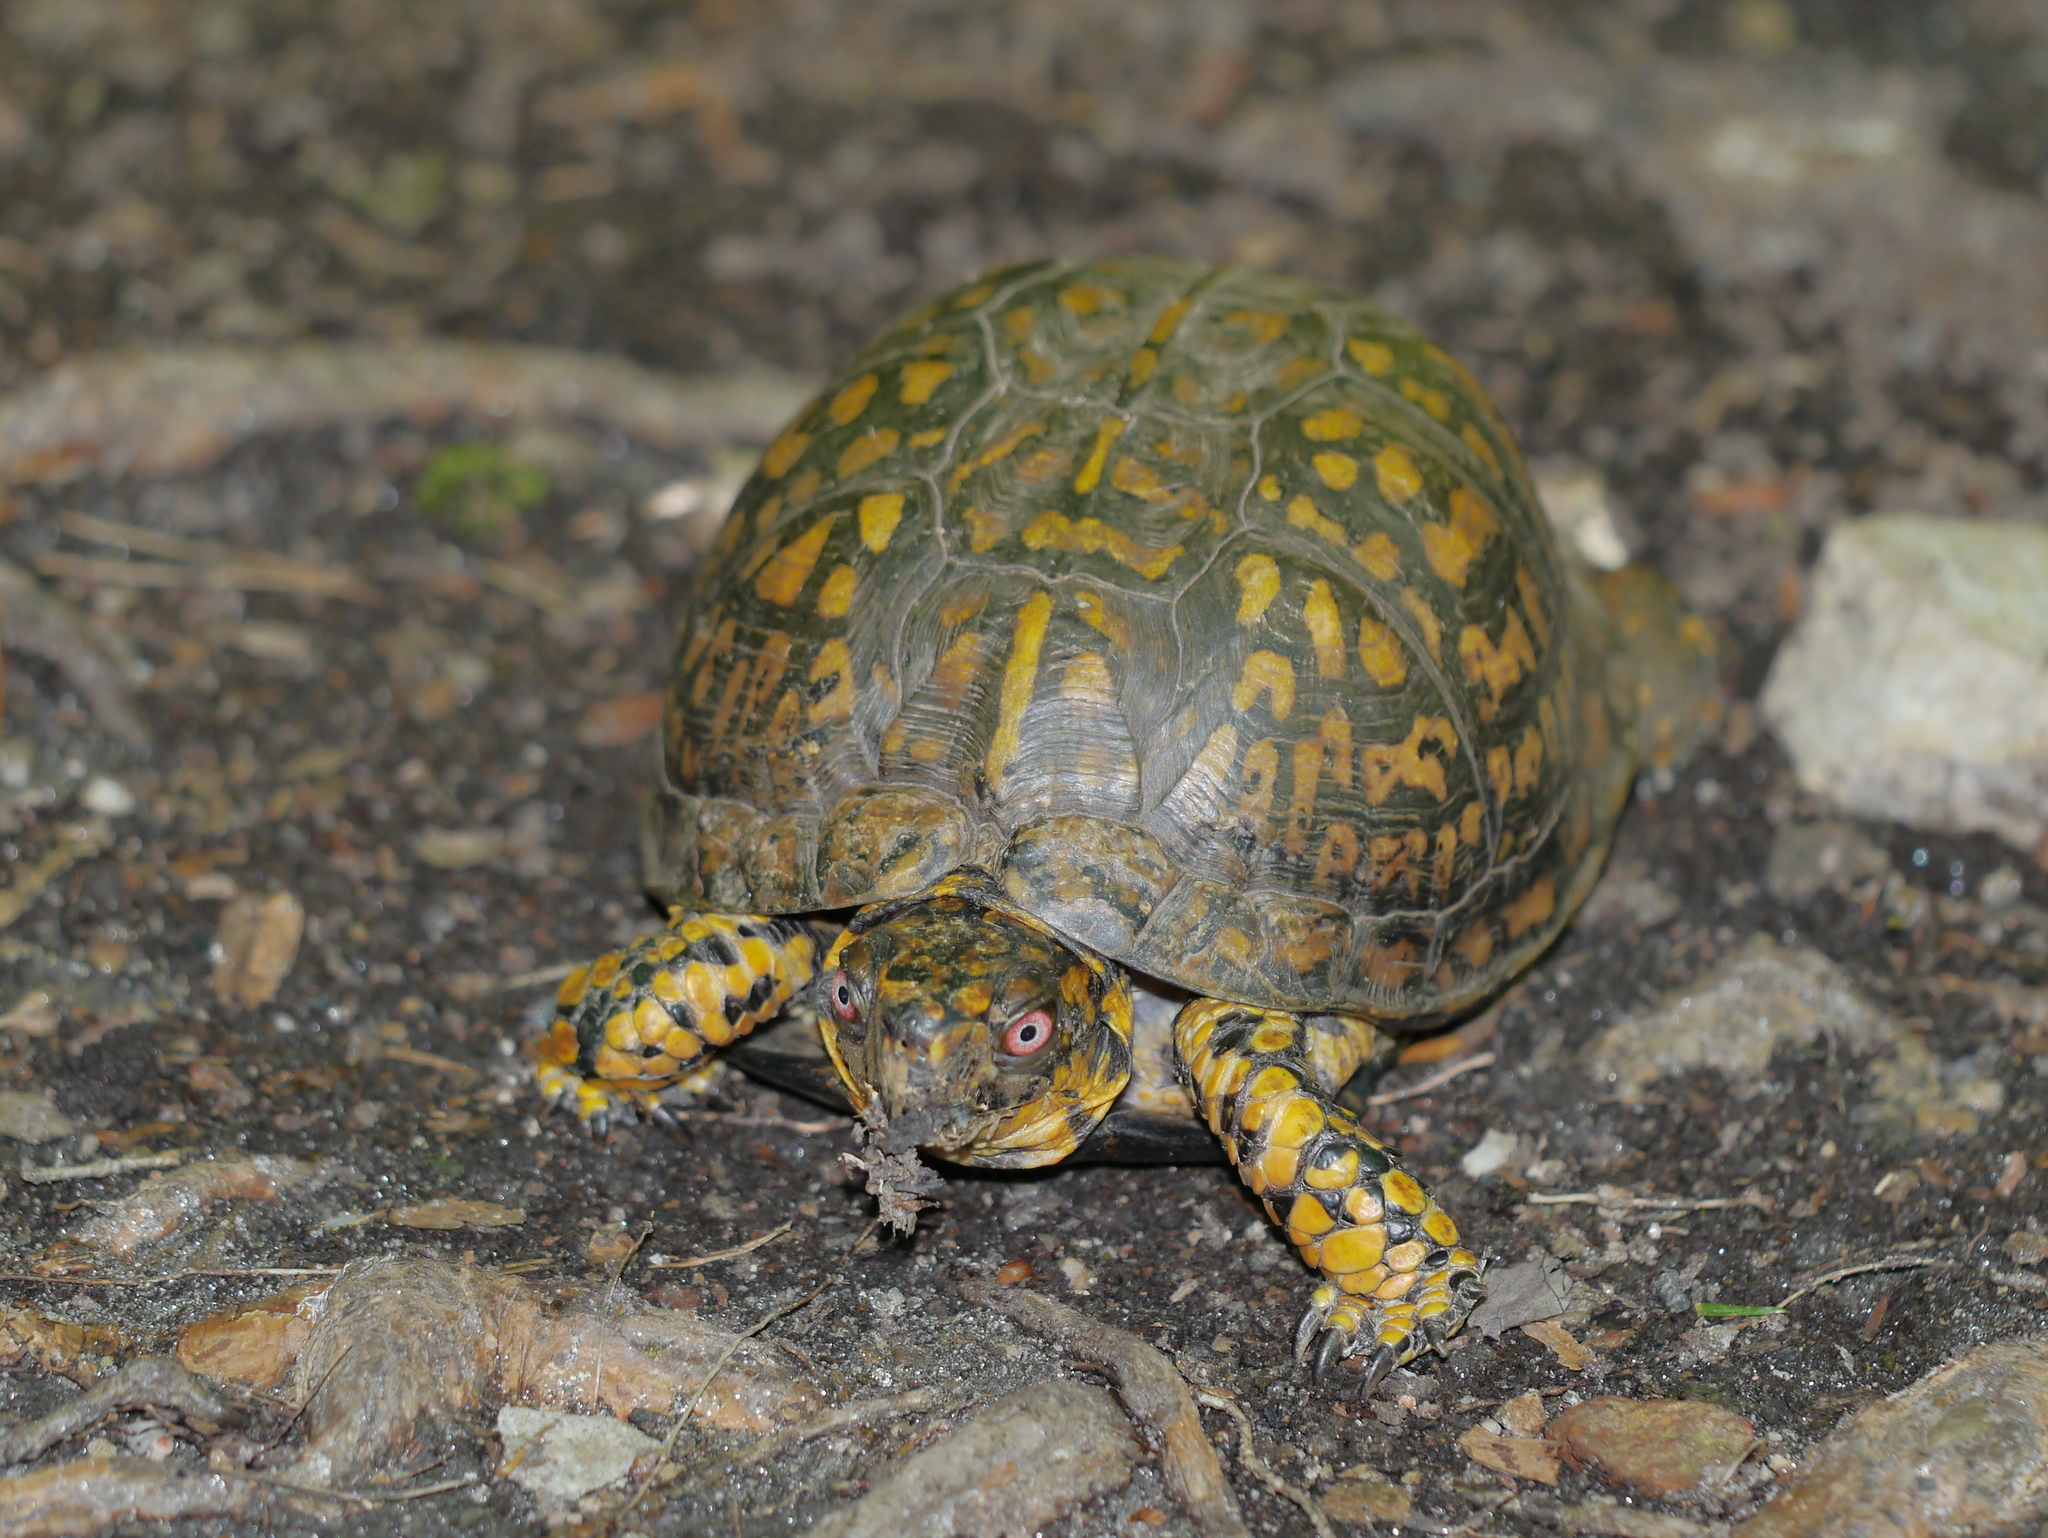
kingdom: Animalia
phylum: Chordata
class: Testudines
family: Emydidae
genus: Terrapene
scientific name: Terrapene carolina
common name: Common box turtle
